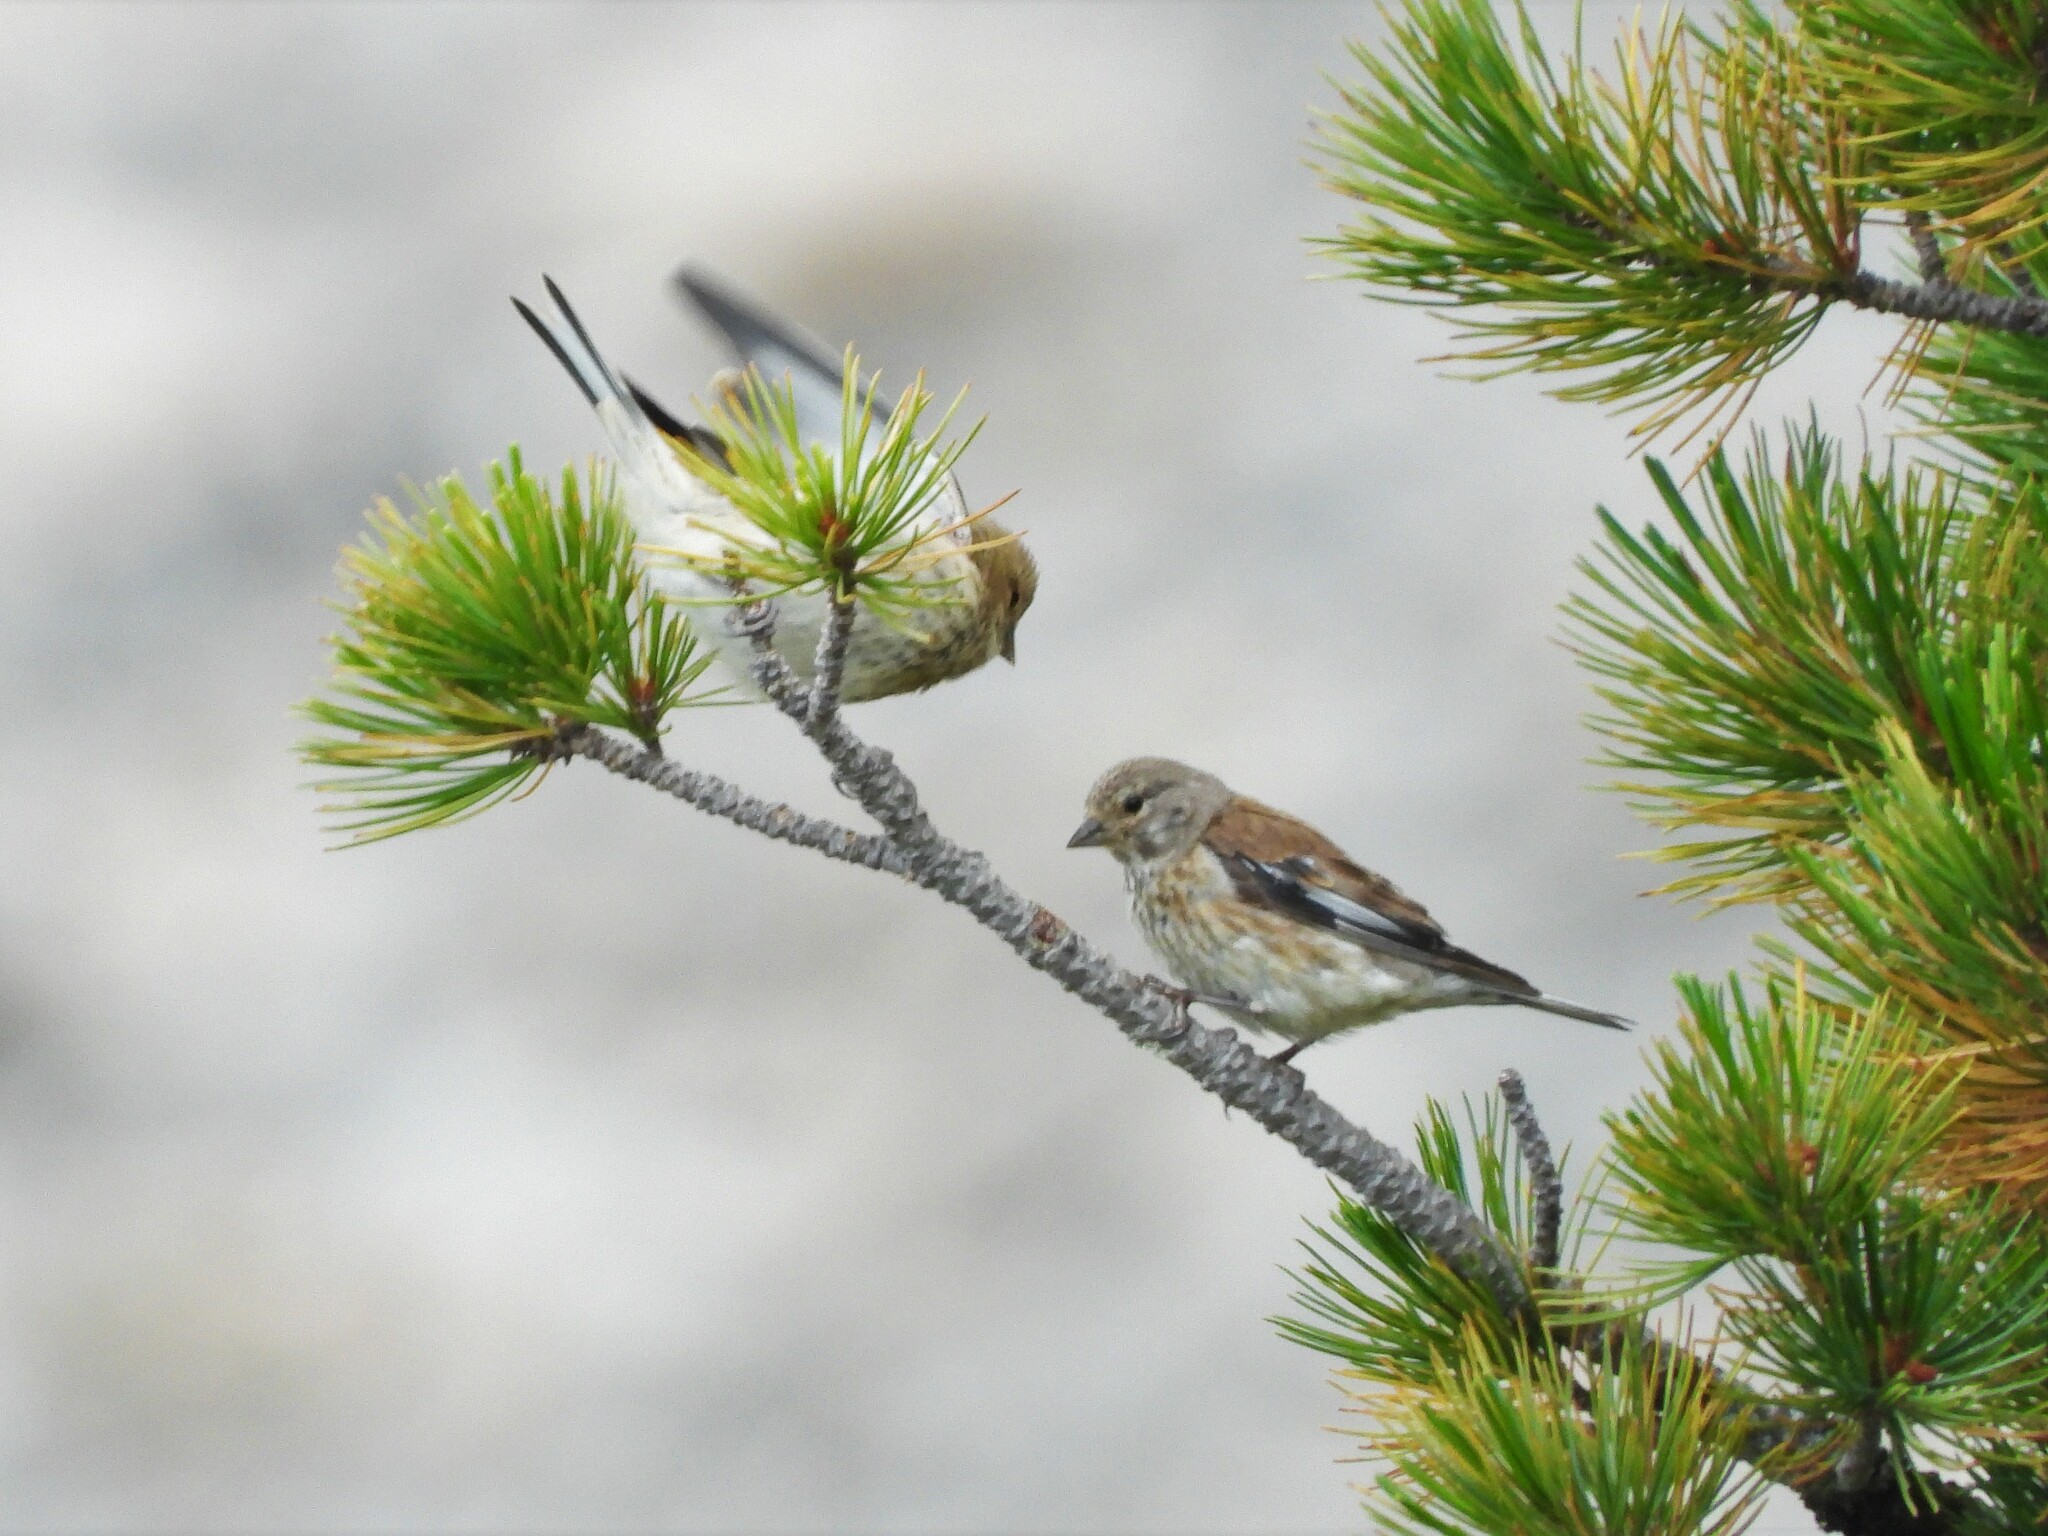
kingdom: Animalia
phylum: Chordata
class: Aves
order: Passeriformes
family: Fringillidae
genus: Linaria
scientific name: Linaria cannabina
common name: Common linnet
